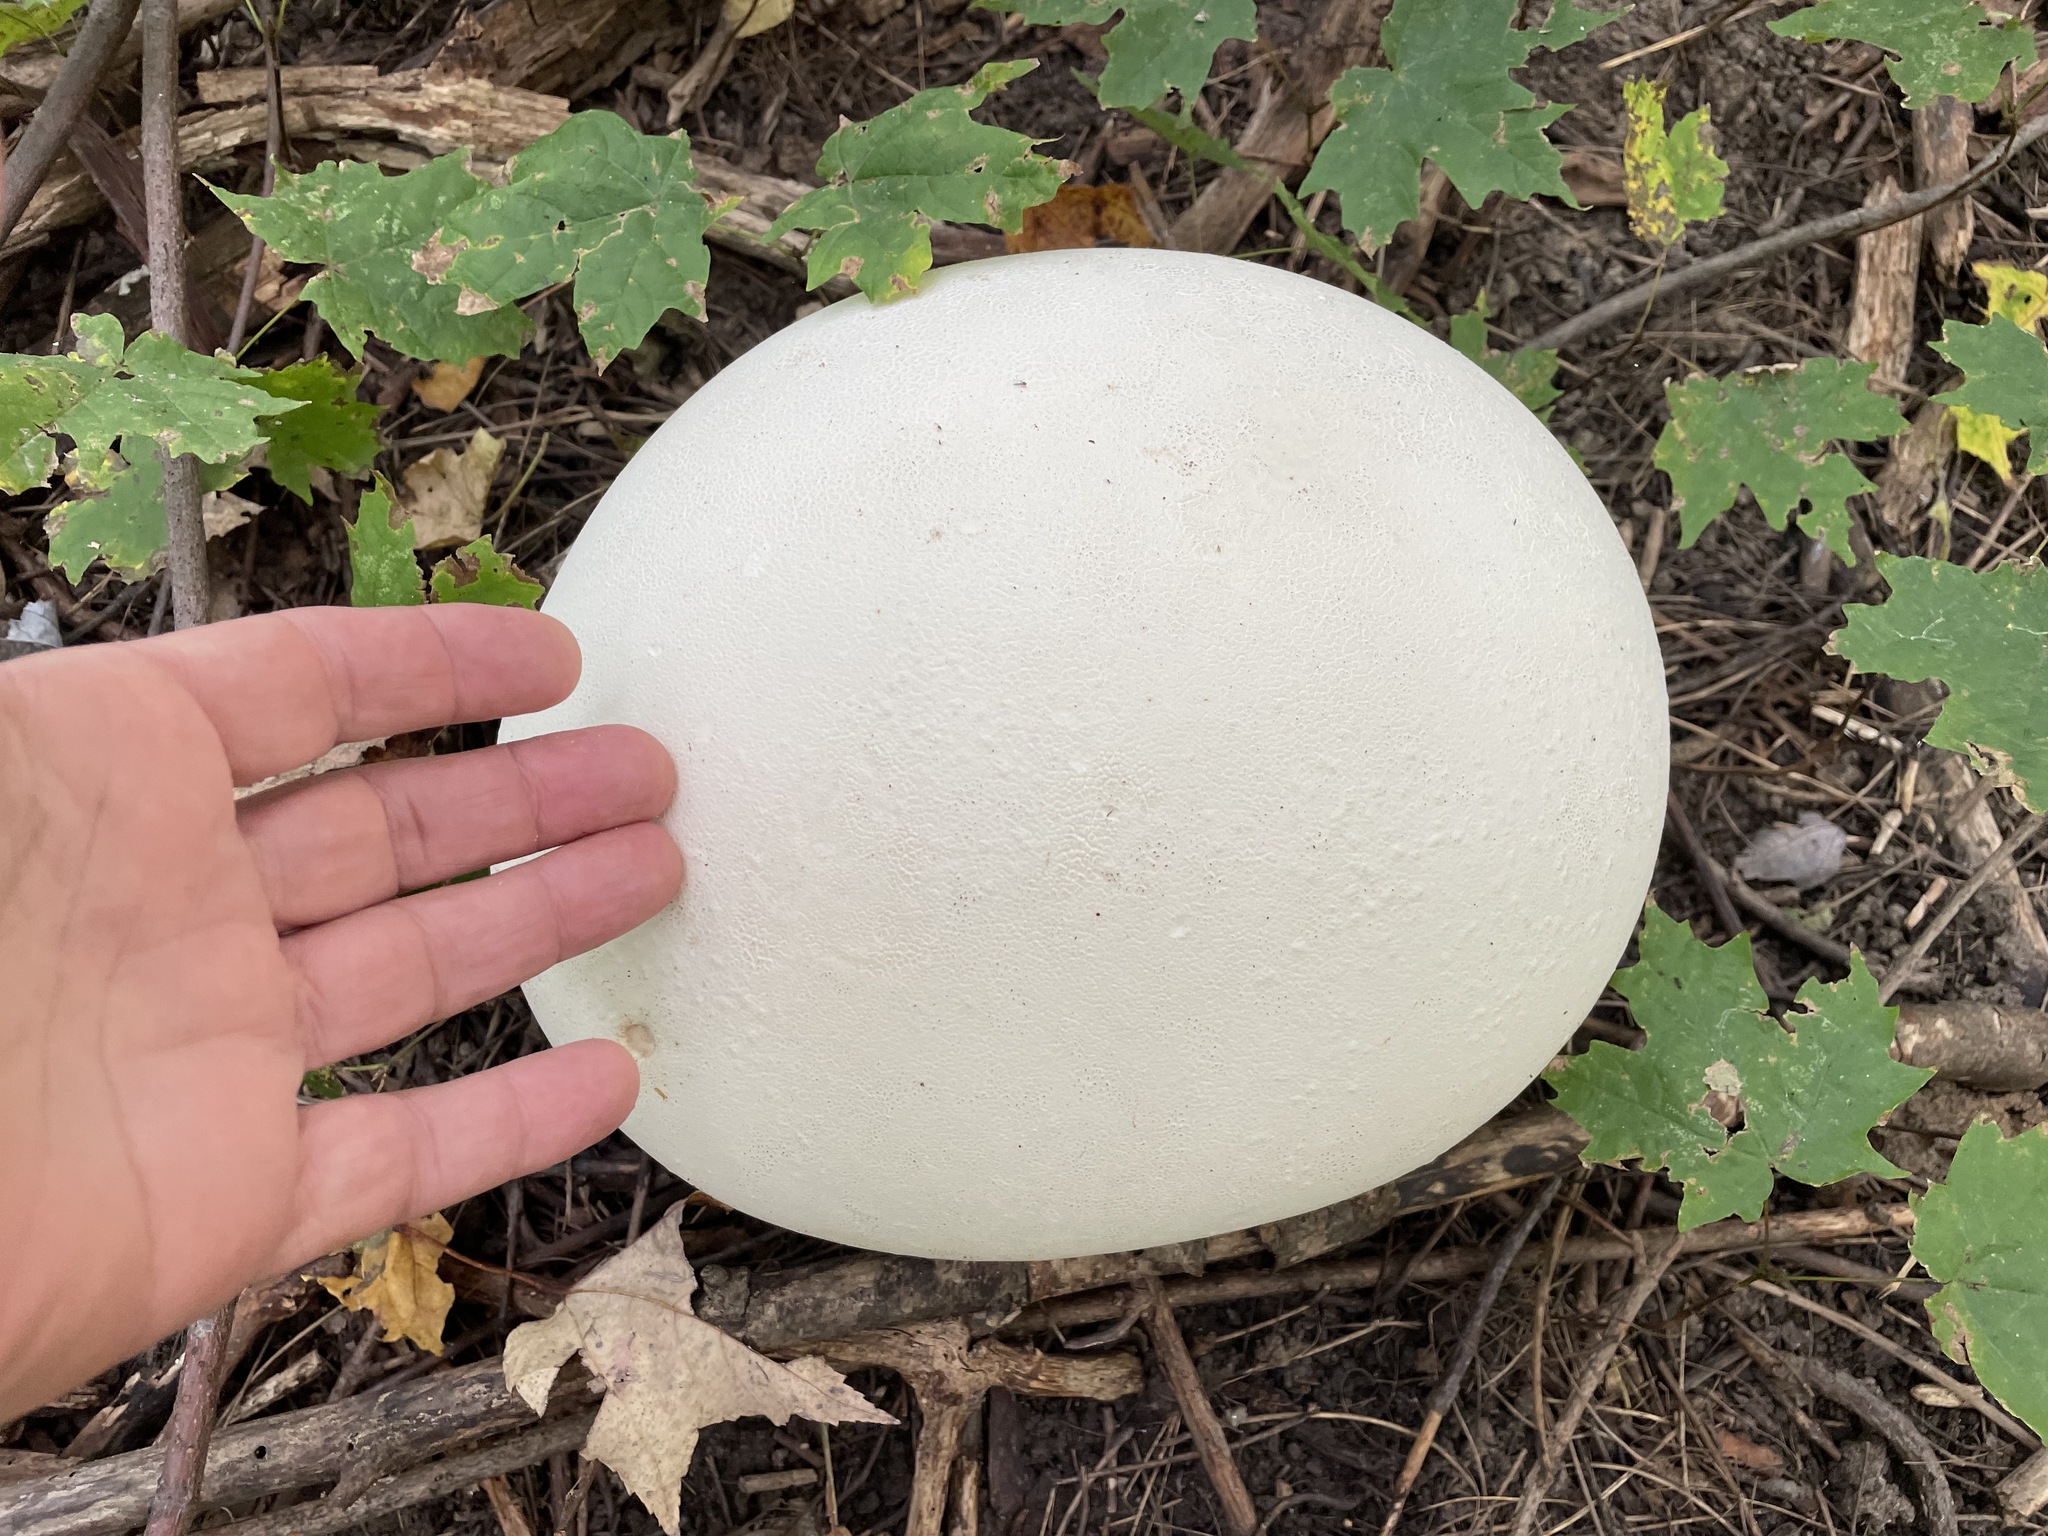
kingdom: Fungi
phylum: Basidiomycota
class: Agaricomycetes
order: Agaricales
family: Lycoperdaceae
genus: Calvatia
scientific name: Calvatia gigantea
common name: Giant puffball
